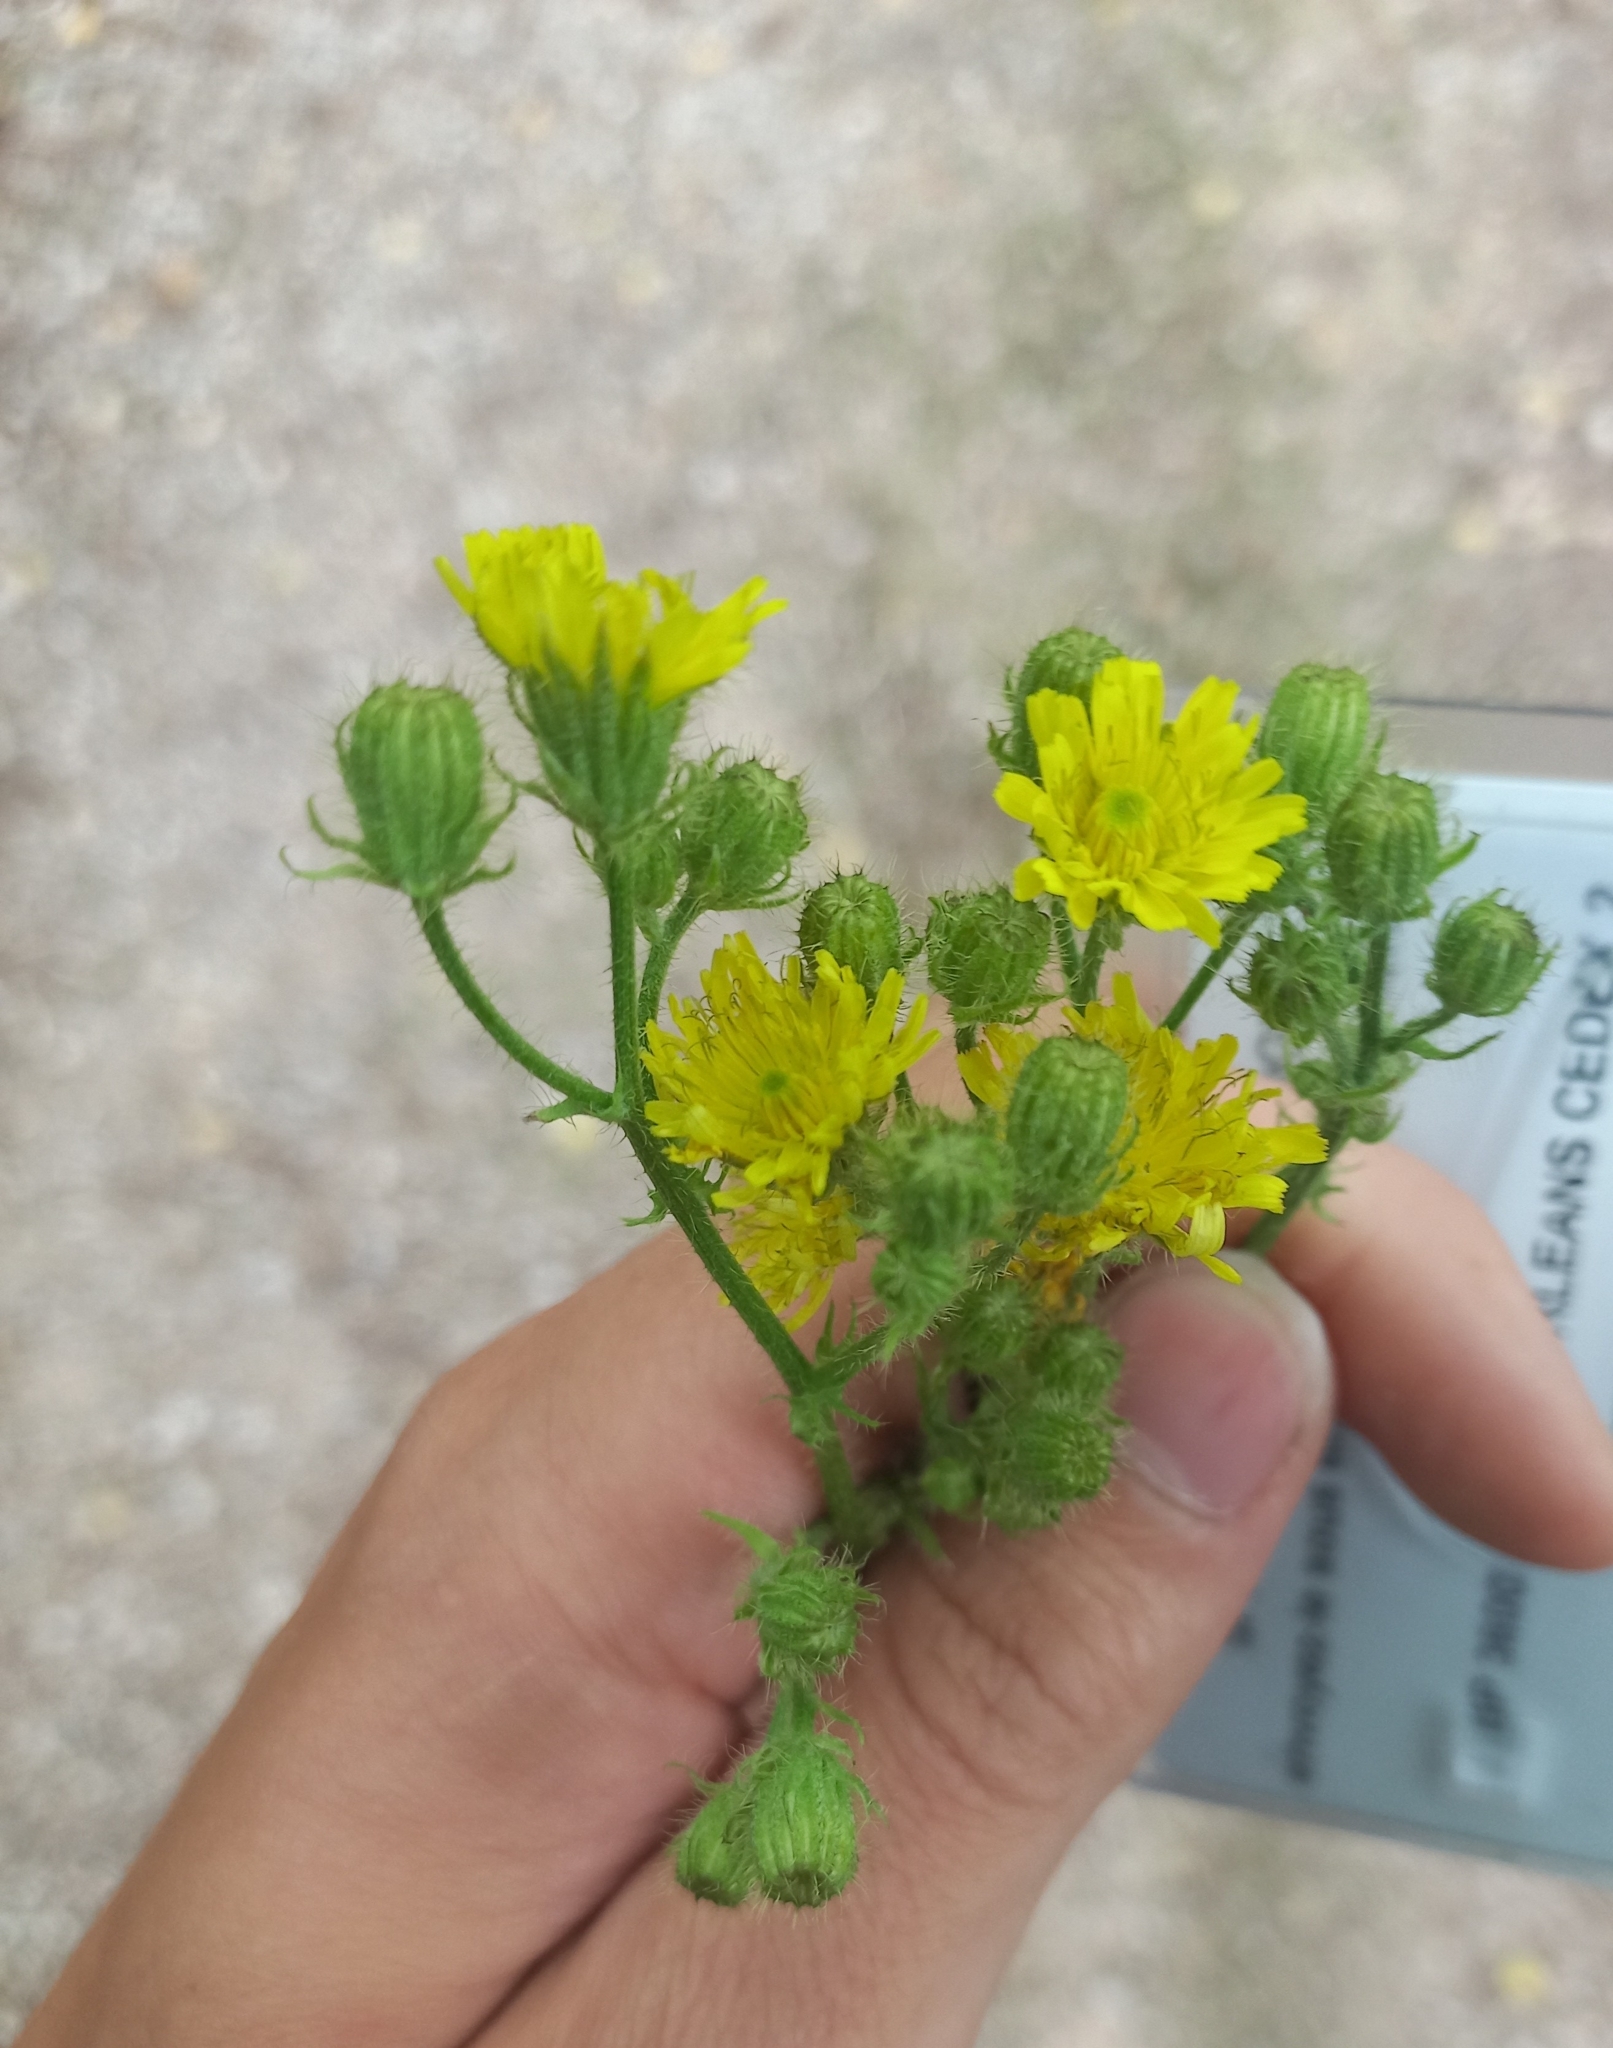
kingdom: Plantae
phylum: Tracheophyta
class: Magnoliopsida
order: Asterales
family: Asteraceae
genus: Crepis
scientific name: Crepis setosa
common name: Bristly hawk's-beard
